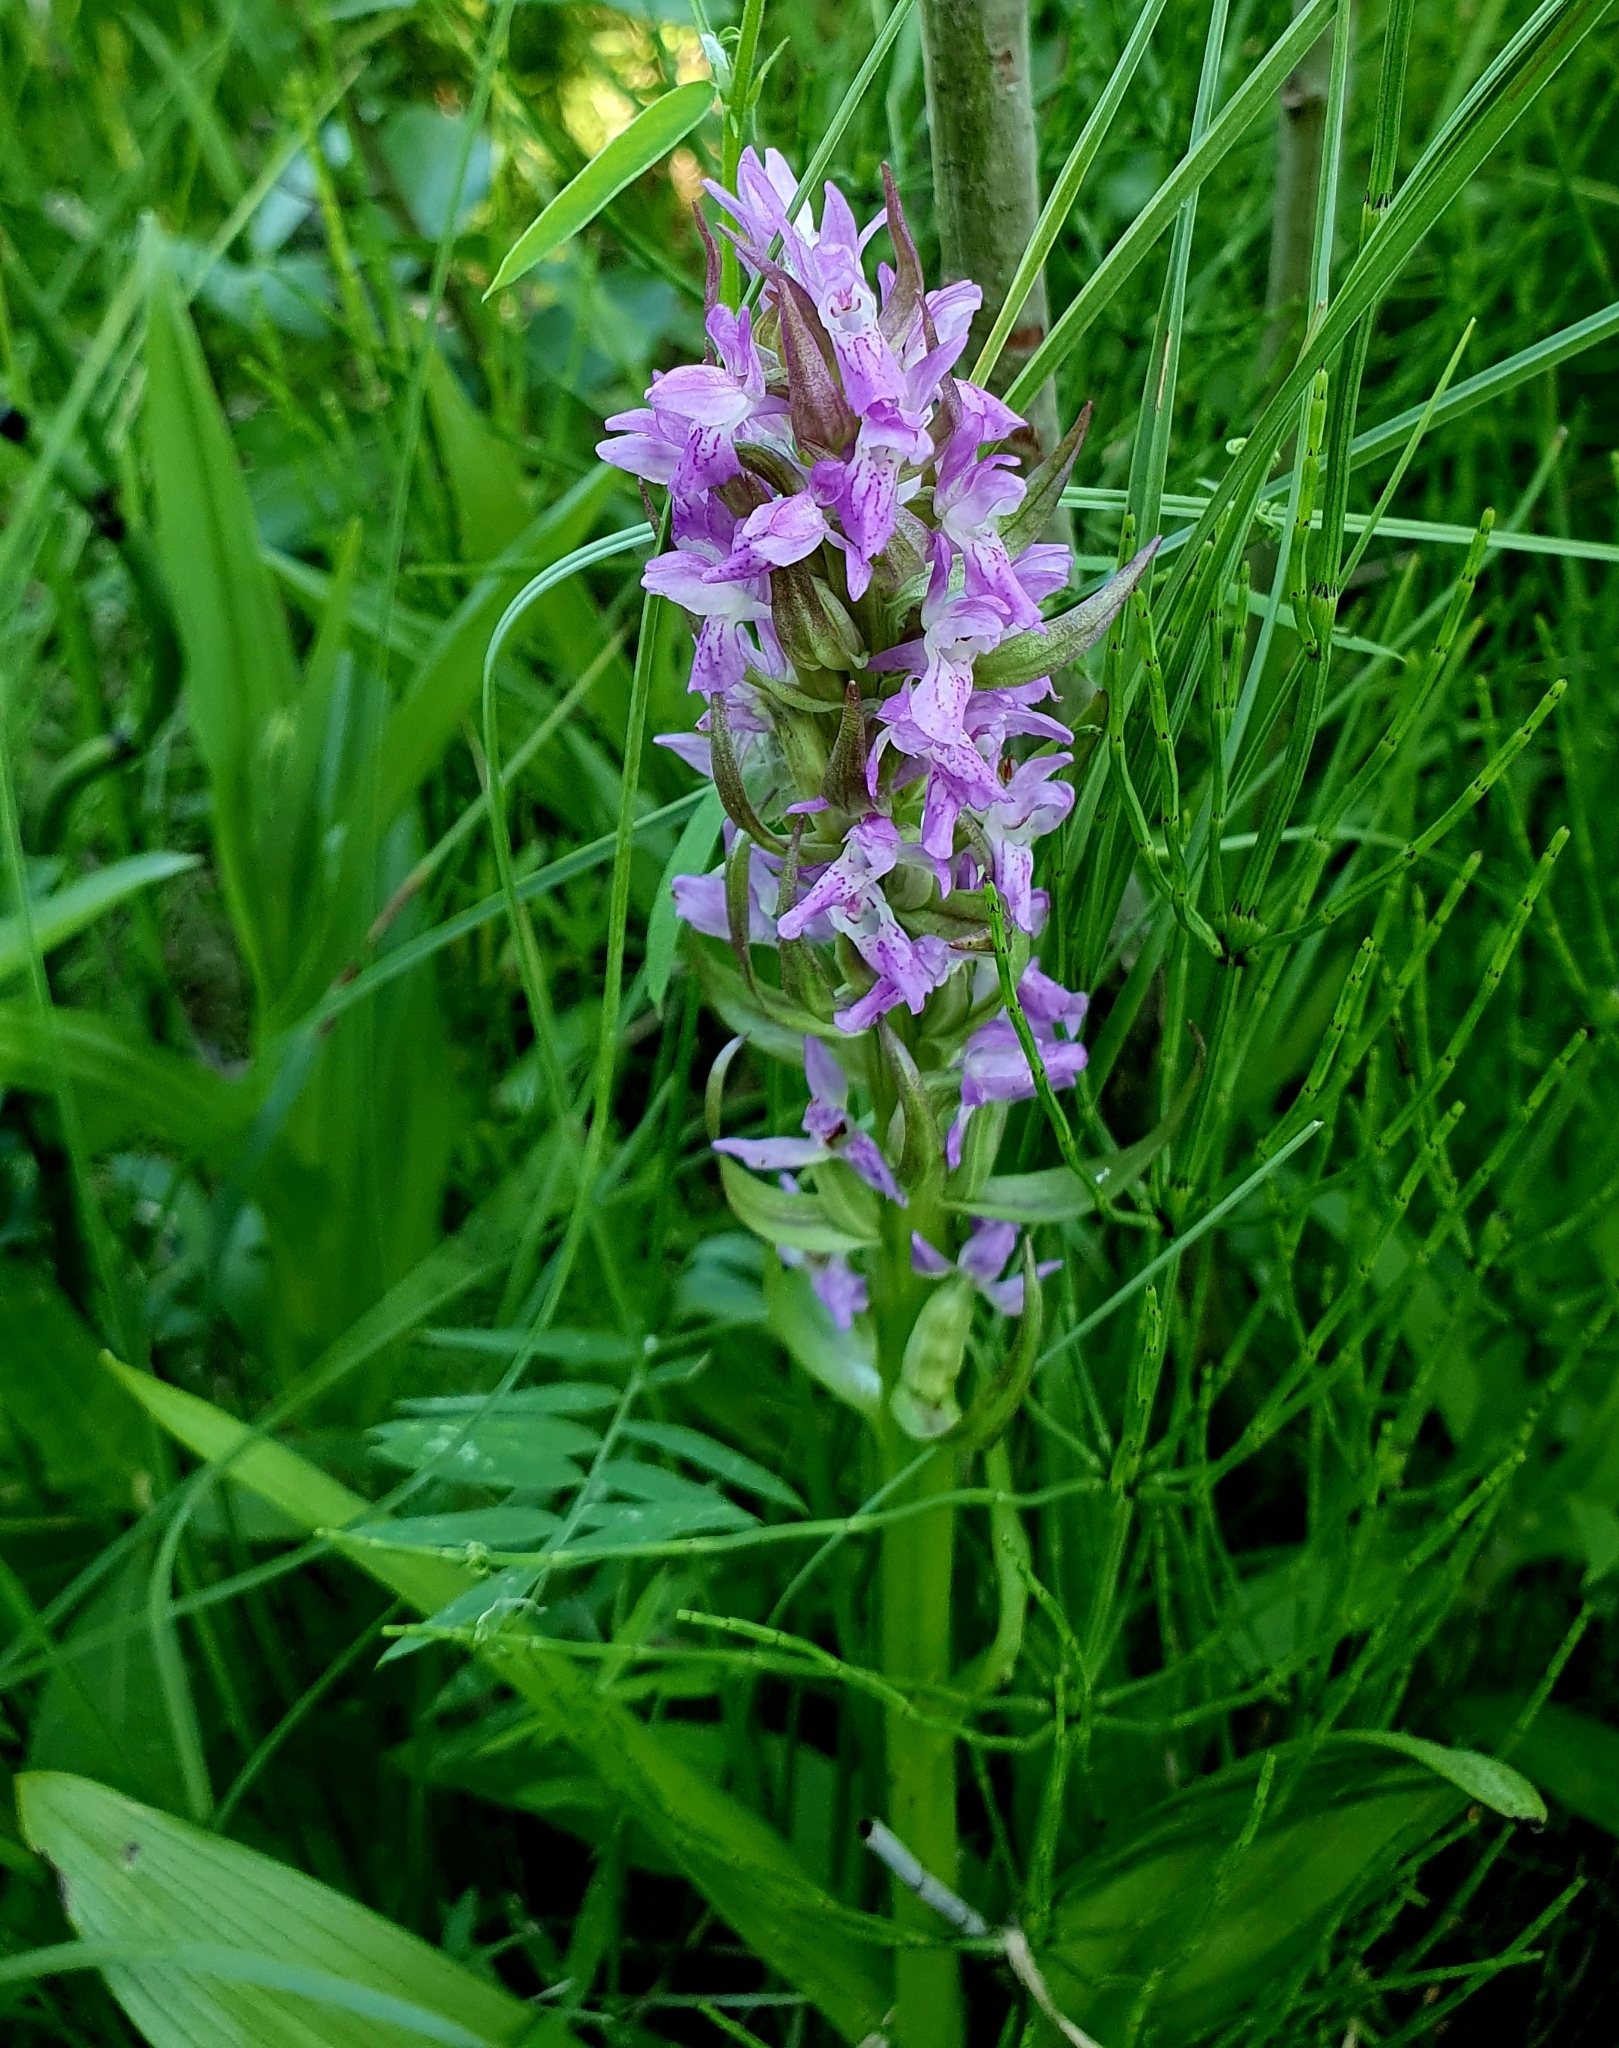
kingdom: Plantae
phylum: Tracheophyta
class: Liliopsida
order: Asparagales
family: Orchidaceae
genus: Dactylorhiza
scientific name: Dactylorhiza incarnata
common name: Early marsh-orchid
